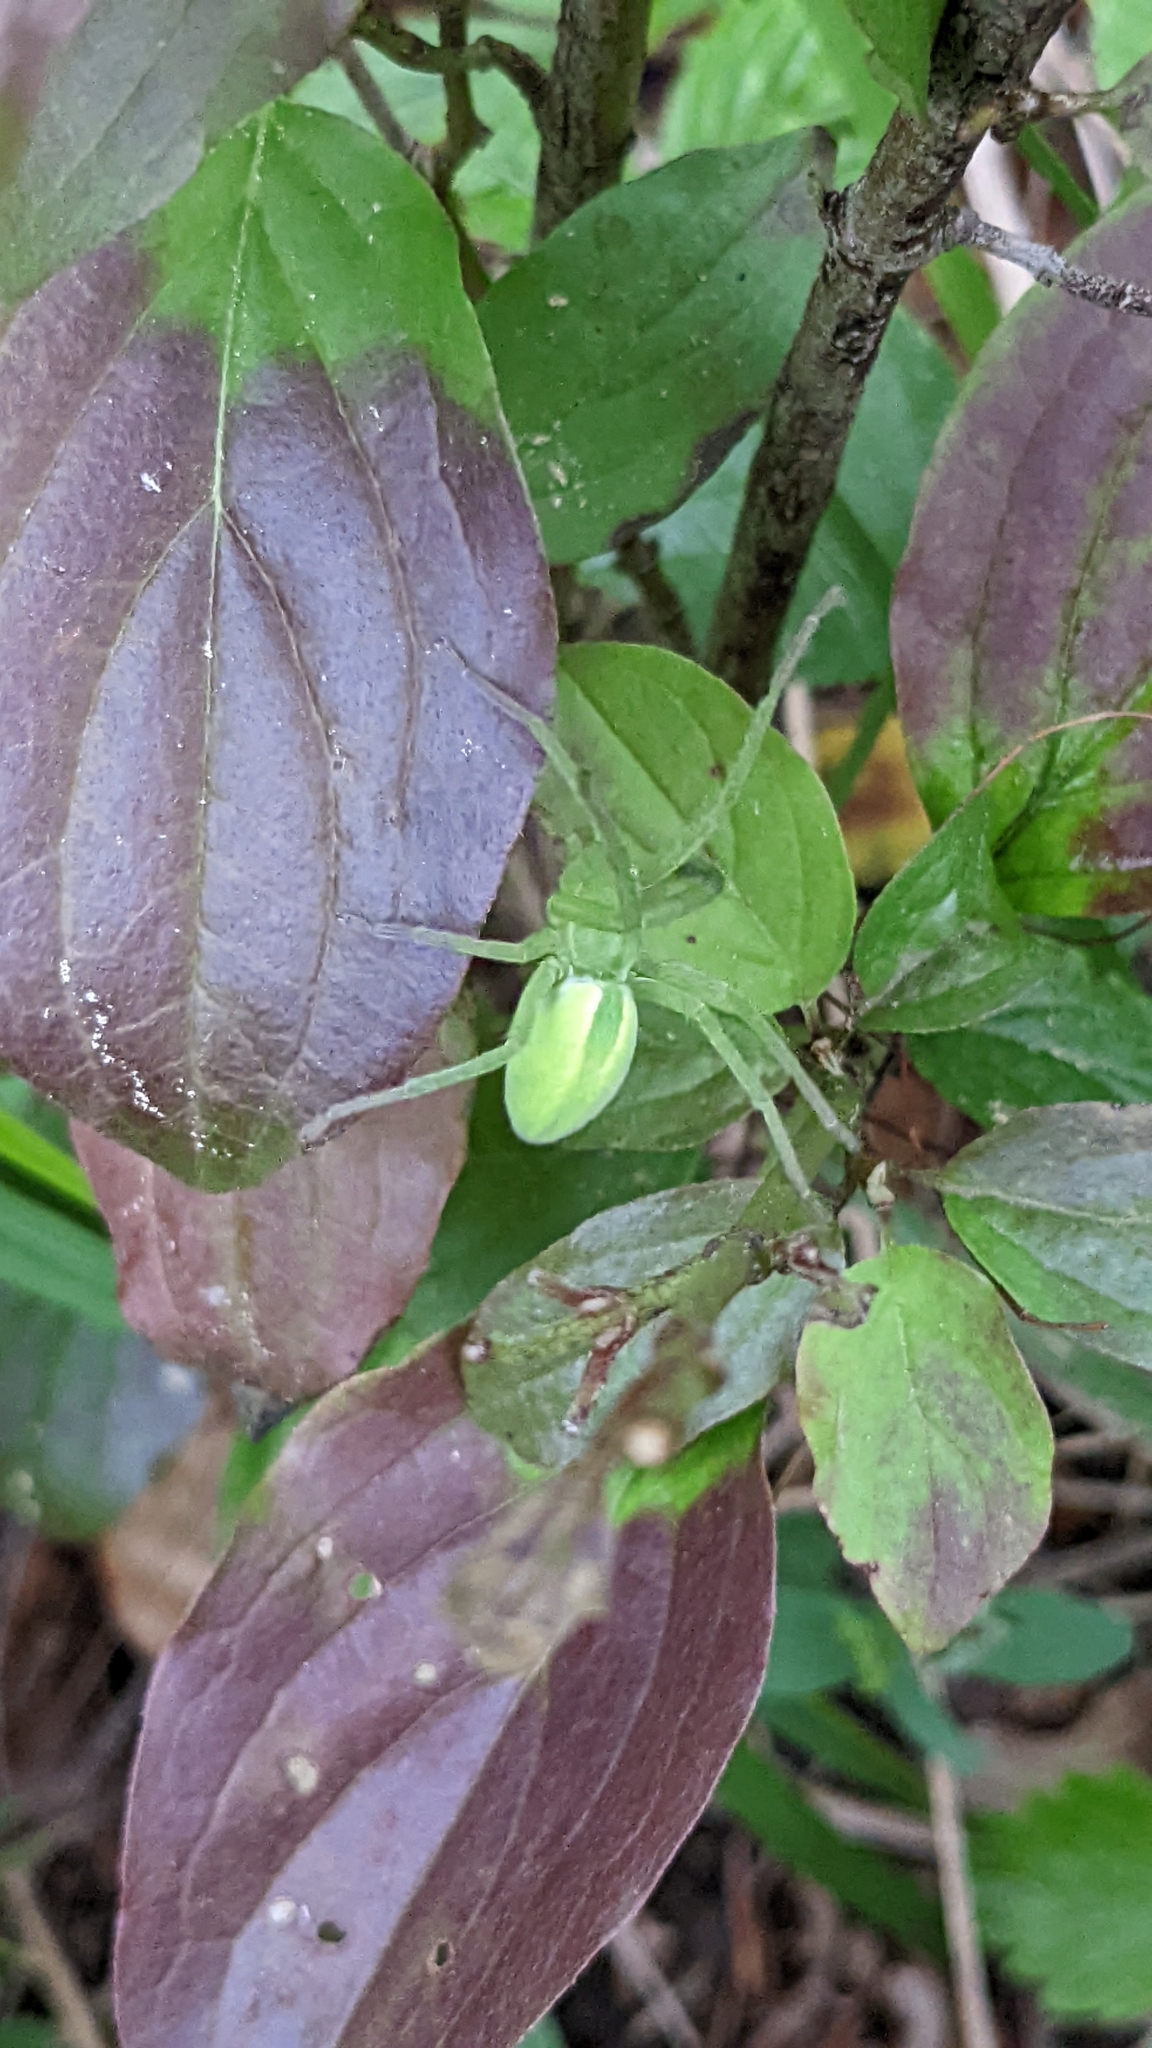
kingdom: Animalia
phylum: Arthropoda
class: Arachnida
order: Araneae
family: Sparassidae
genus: Micrommata
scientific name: Micrommata virescens
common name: Green spider
